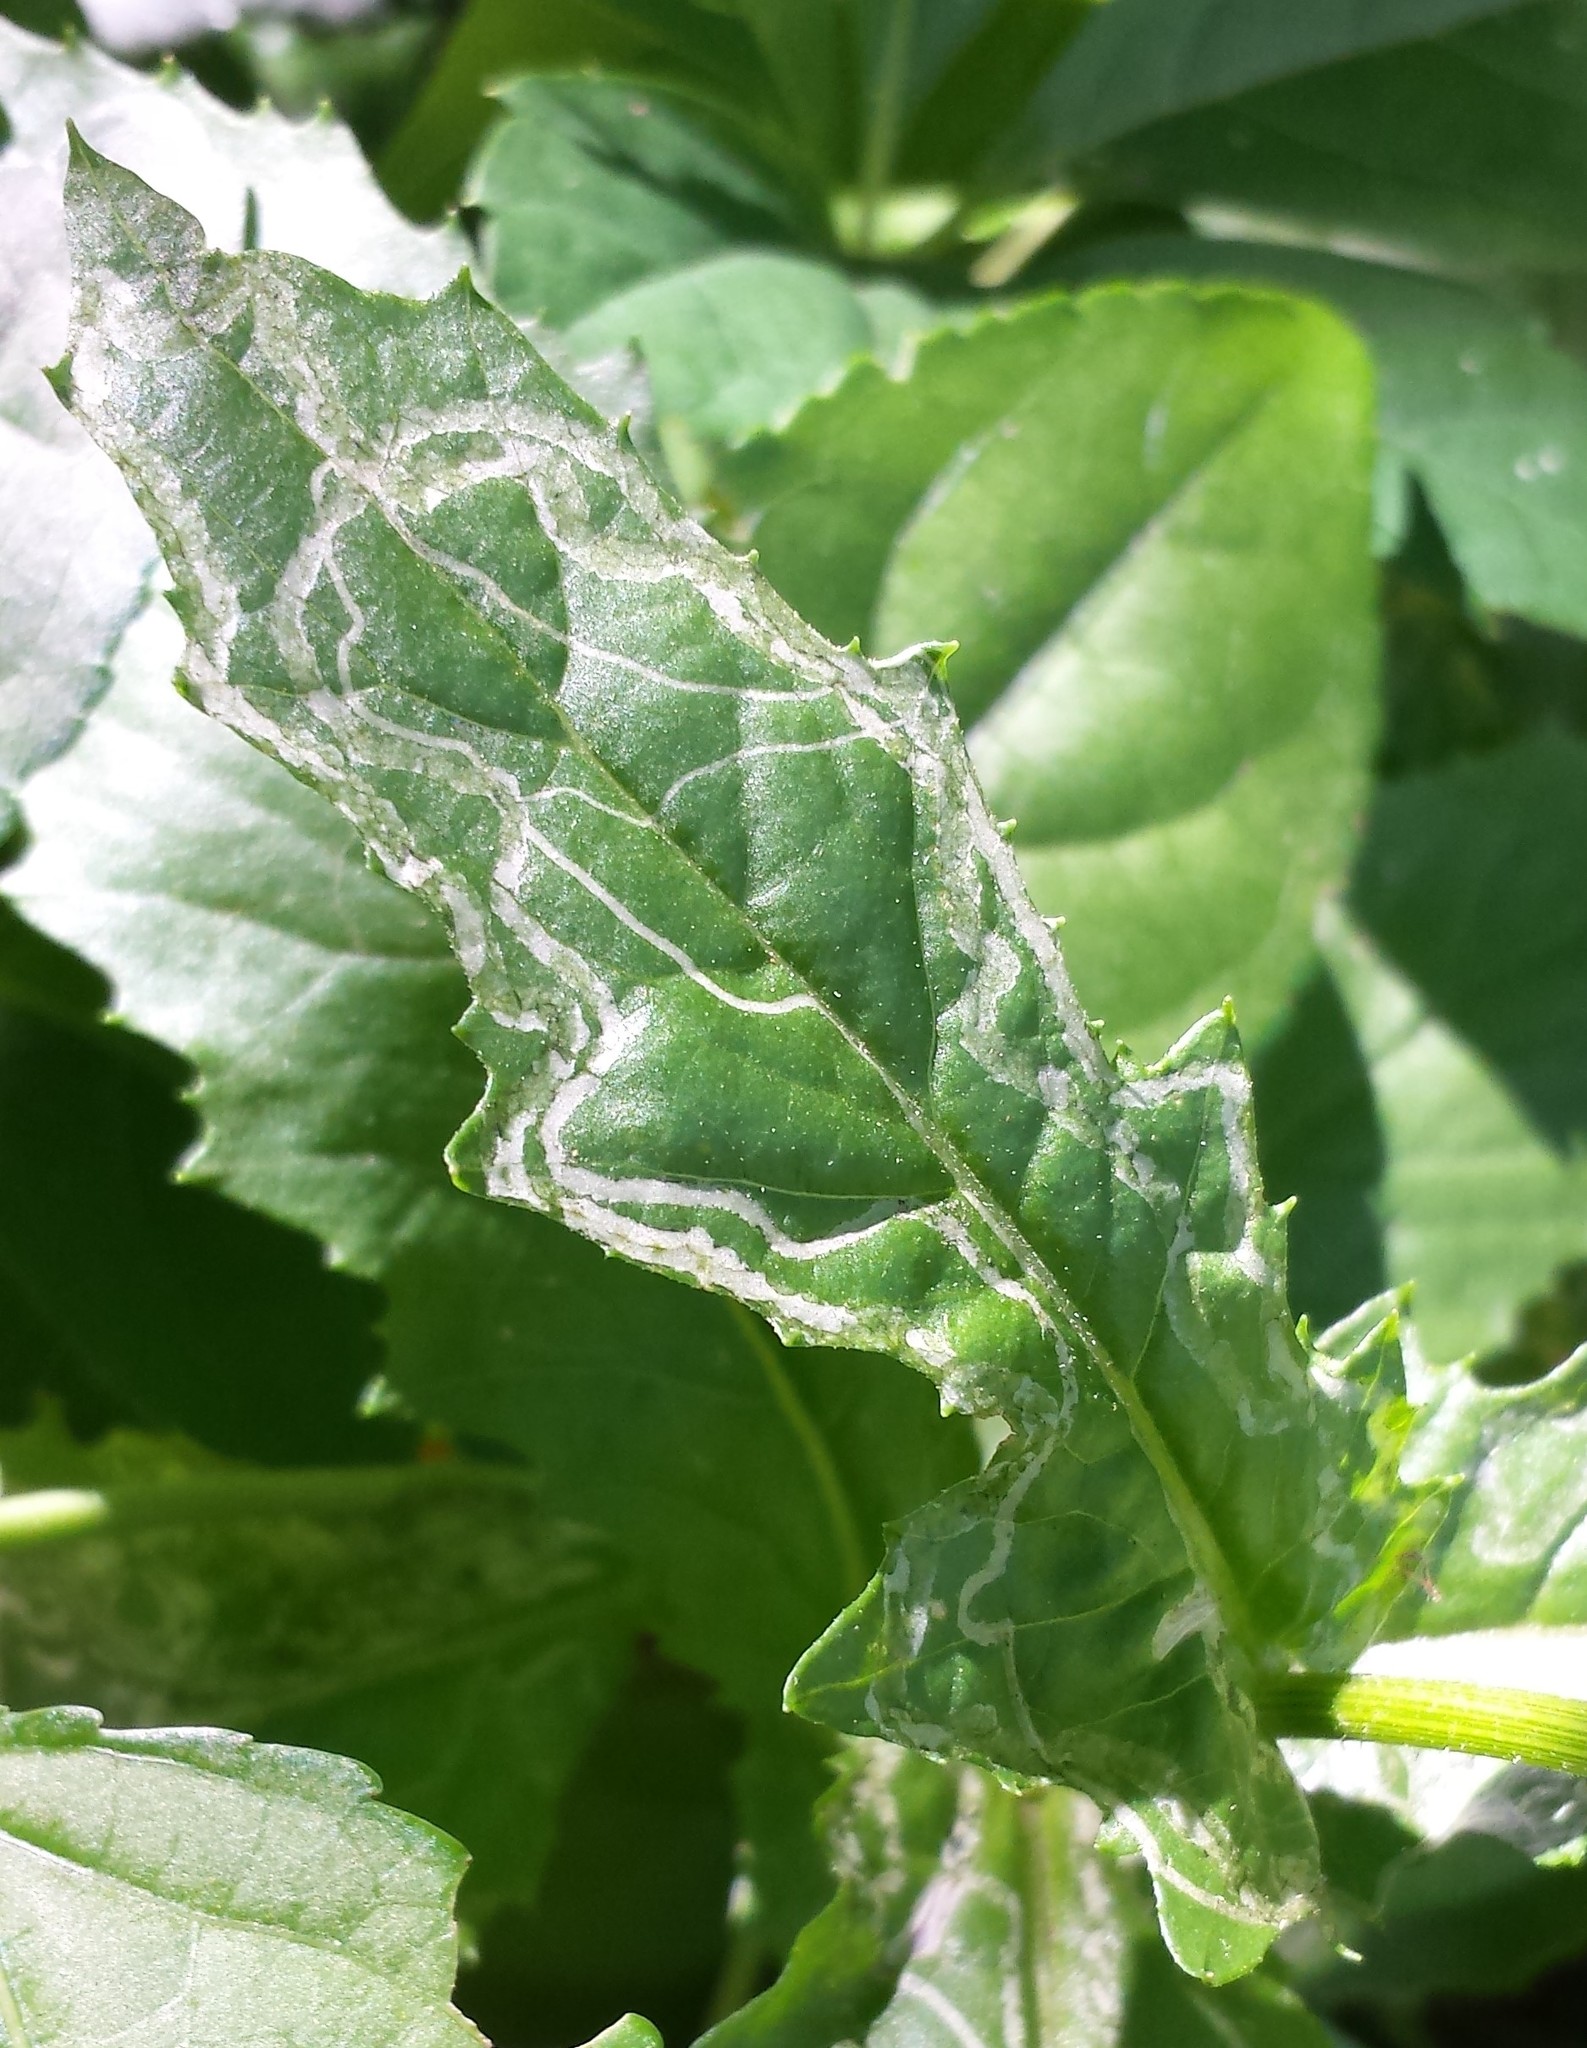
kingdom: Animalia
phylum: Arthropoda
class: Insecta
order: Lepidoptera
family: Gracillariidae
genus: Phyllocnistis
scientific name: Phyllocnistis insignis
